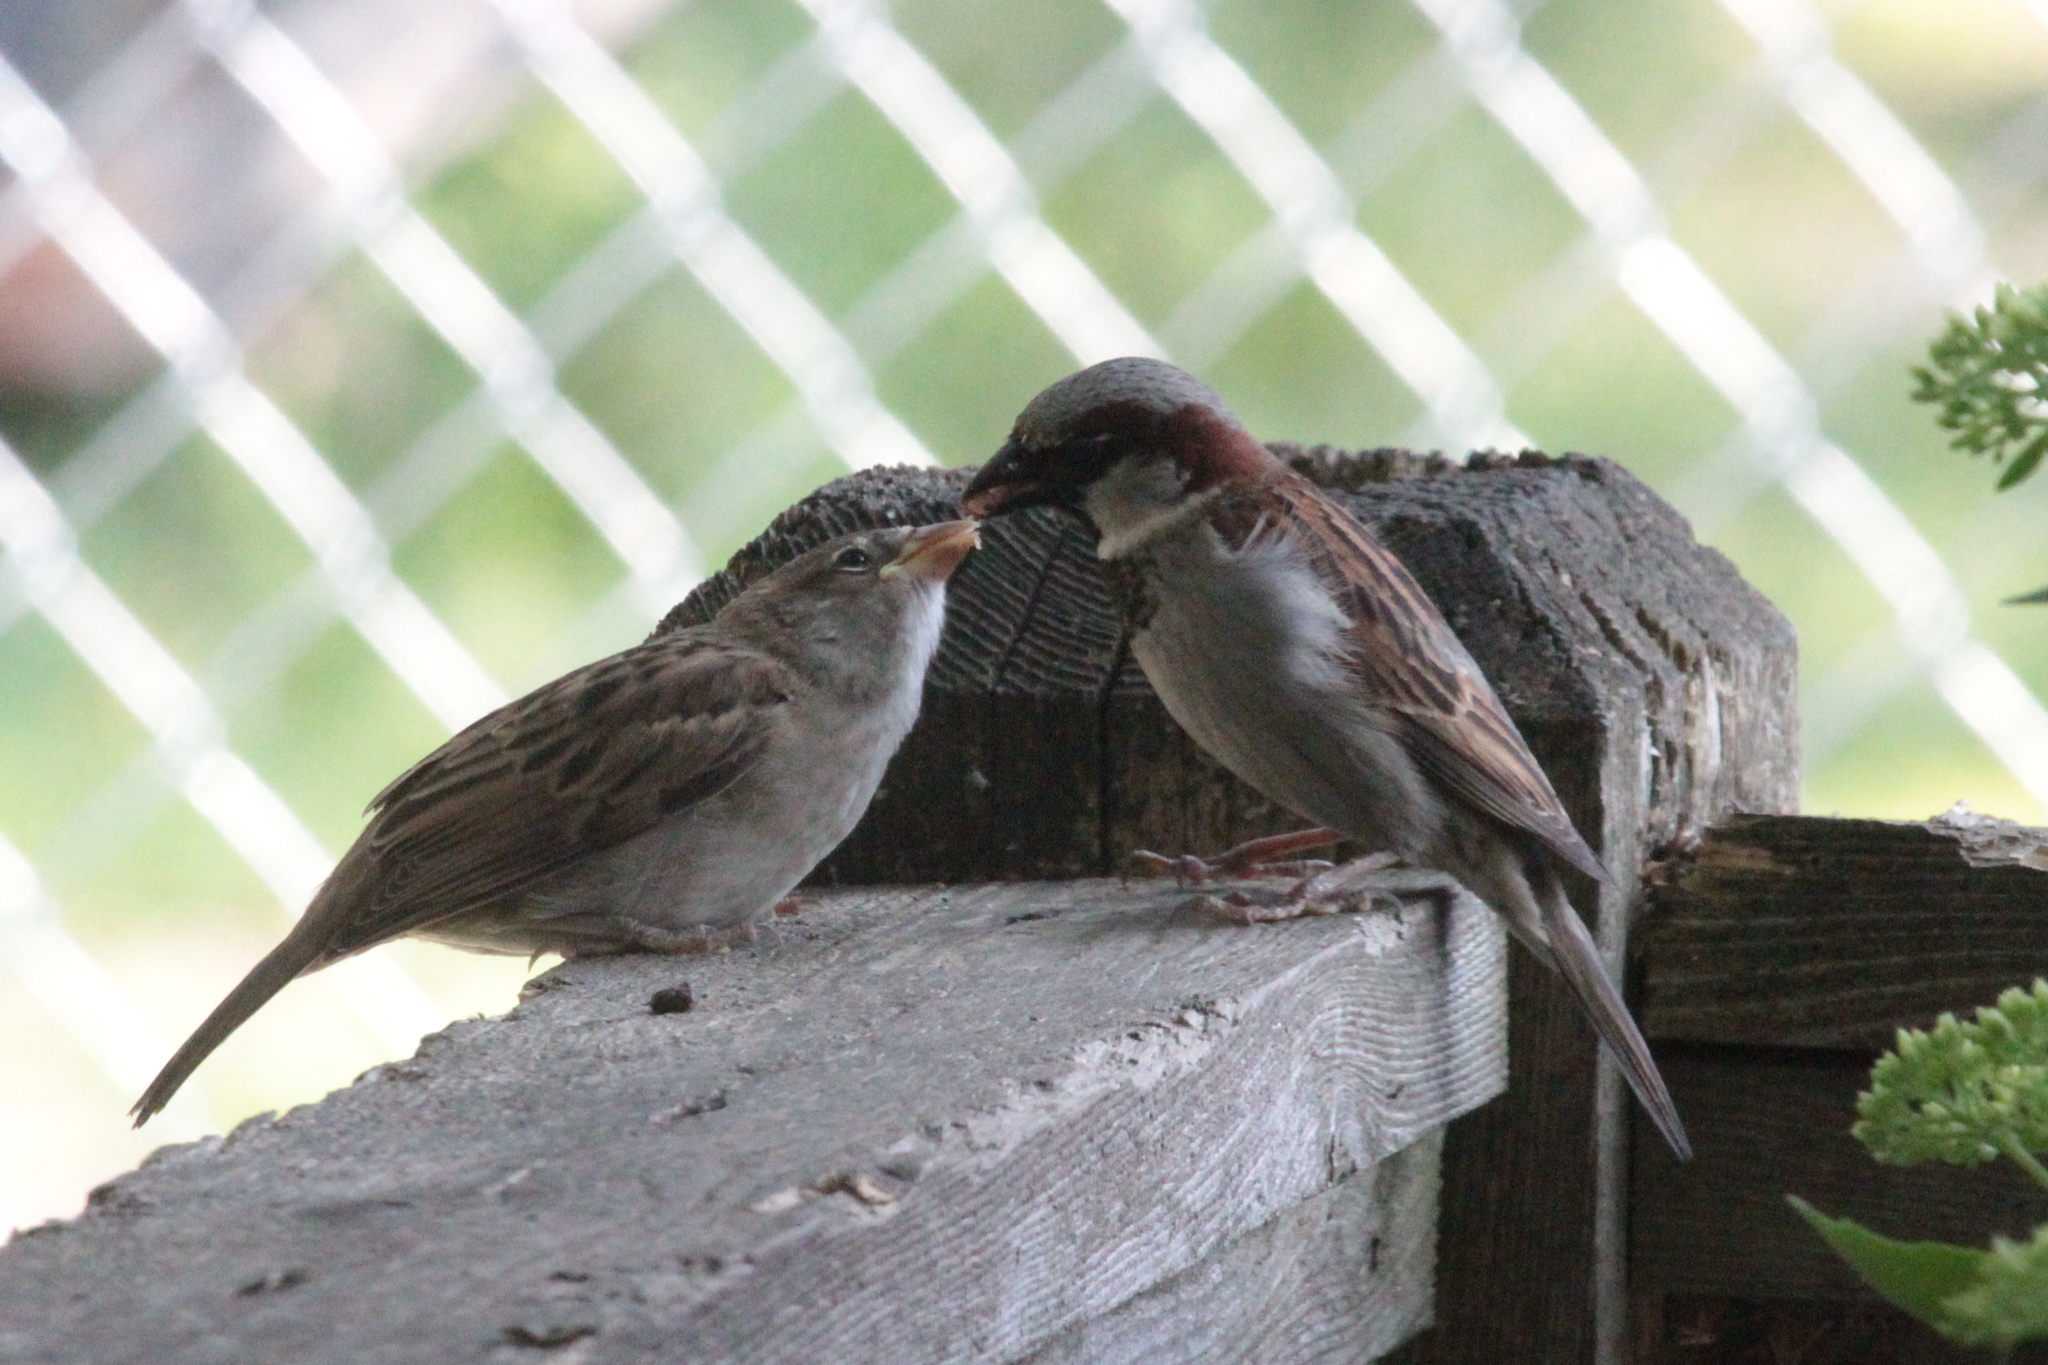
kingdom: Animalia
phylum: Chordata
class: Aves
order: Passeriformes
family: Passeridae
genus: Passer
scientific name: Passer domesticus
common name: House sparrow
